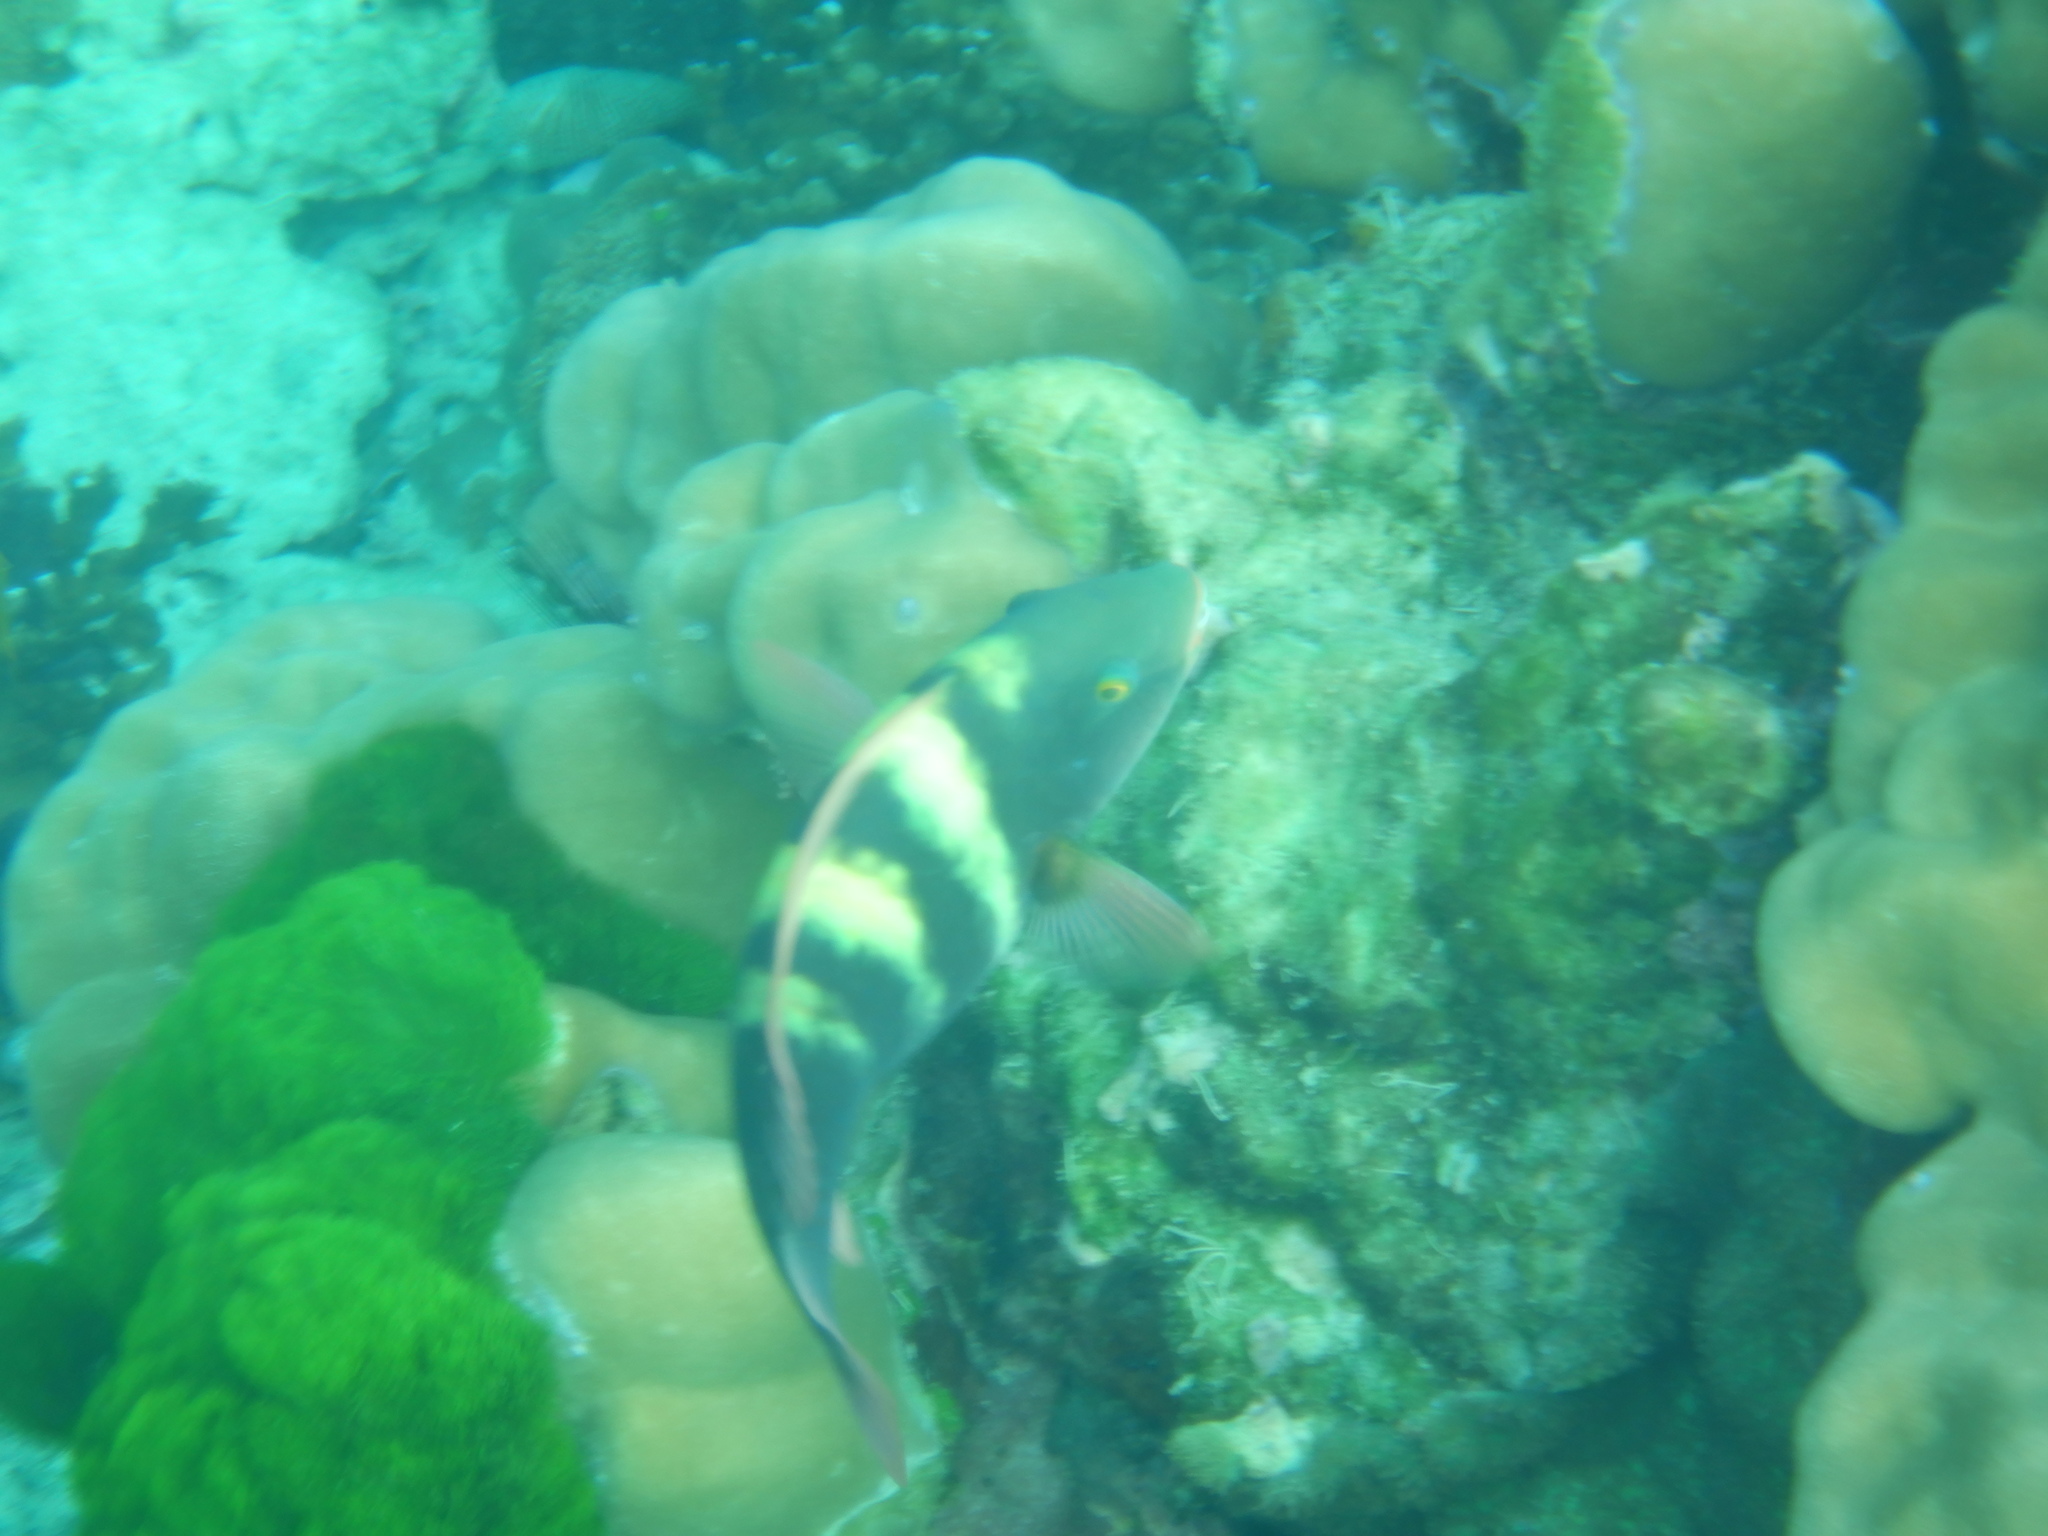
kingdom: Animalia
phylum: Chordata
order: Perciformes
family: Scaridae
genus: Chlorurus
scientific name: Chlorurus troschelii
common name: Troschel's parrotfish
